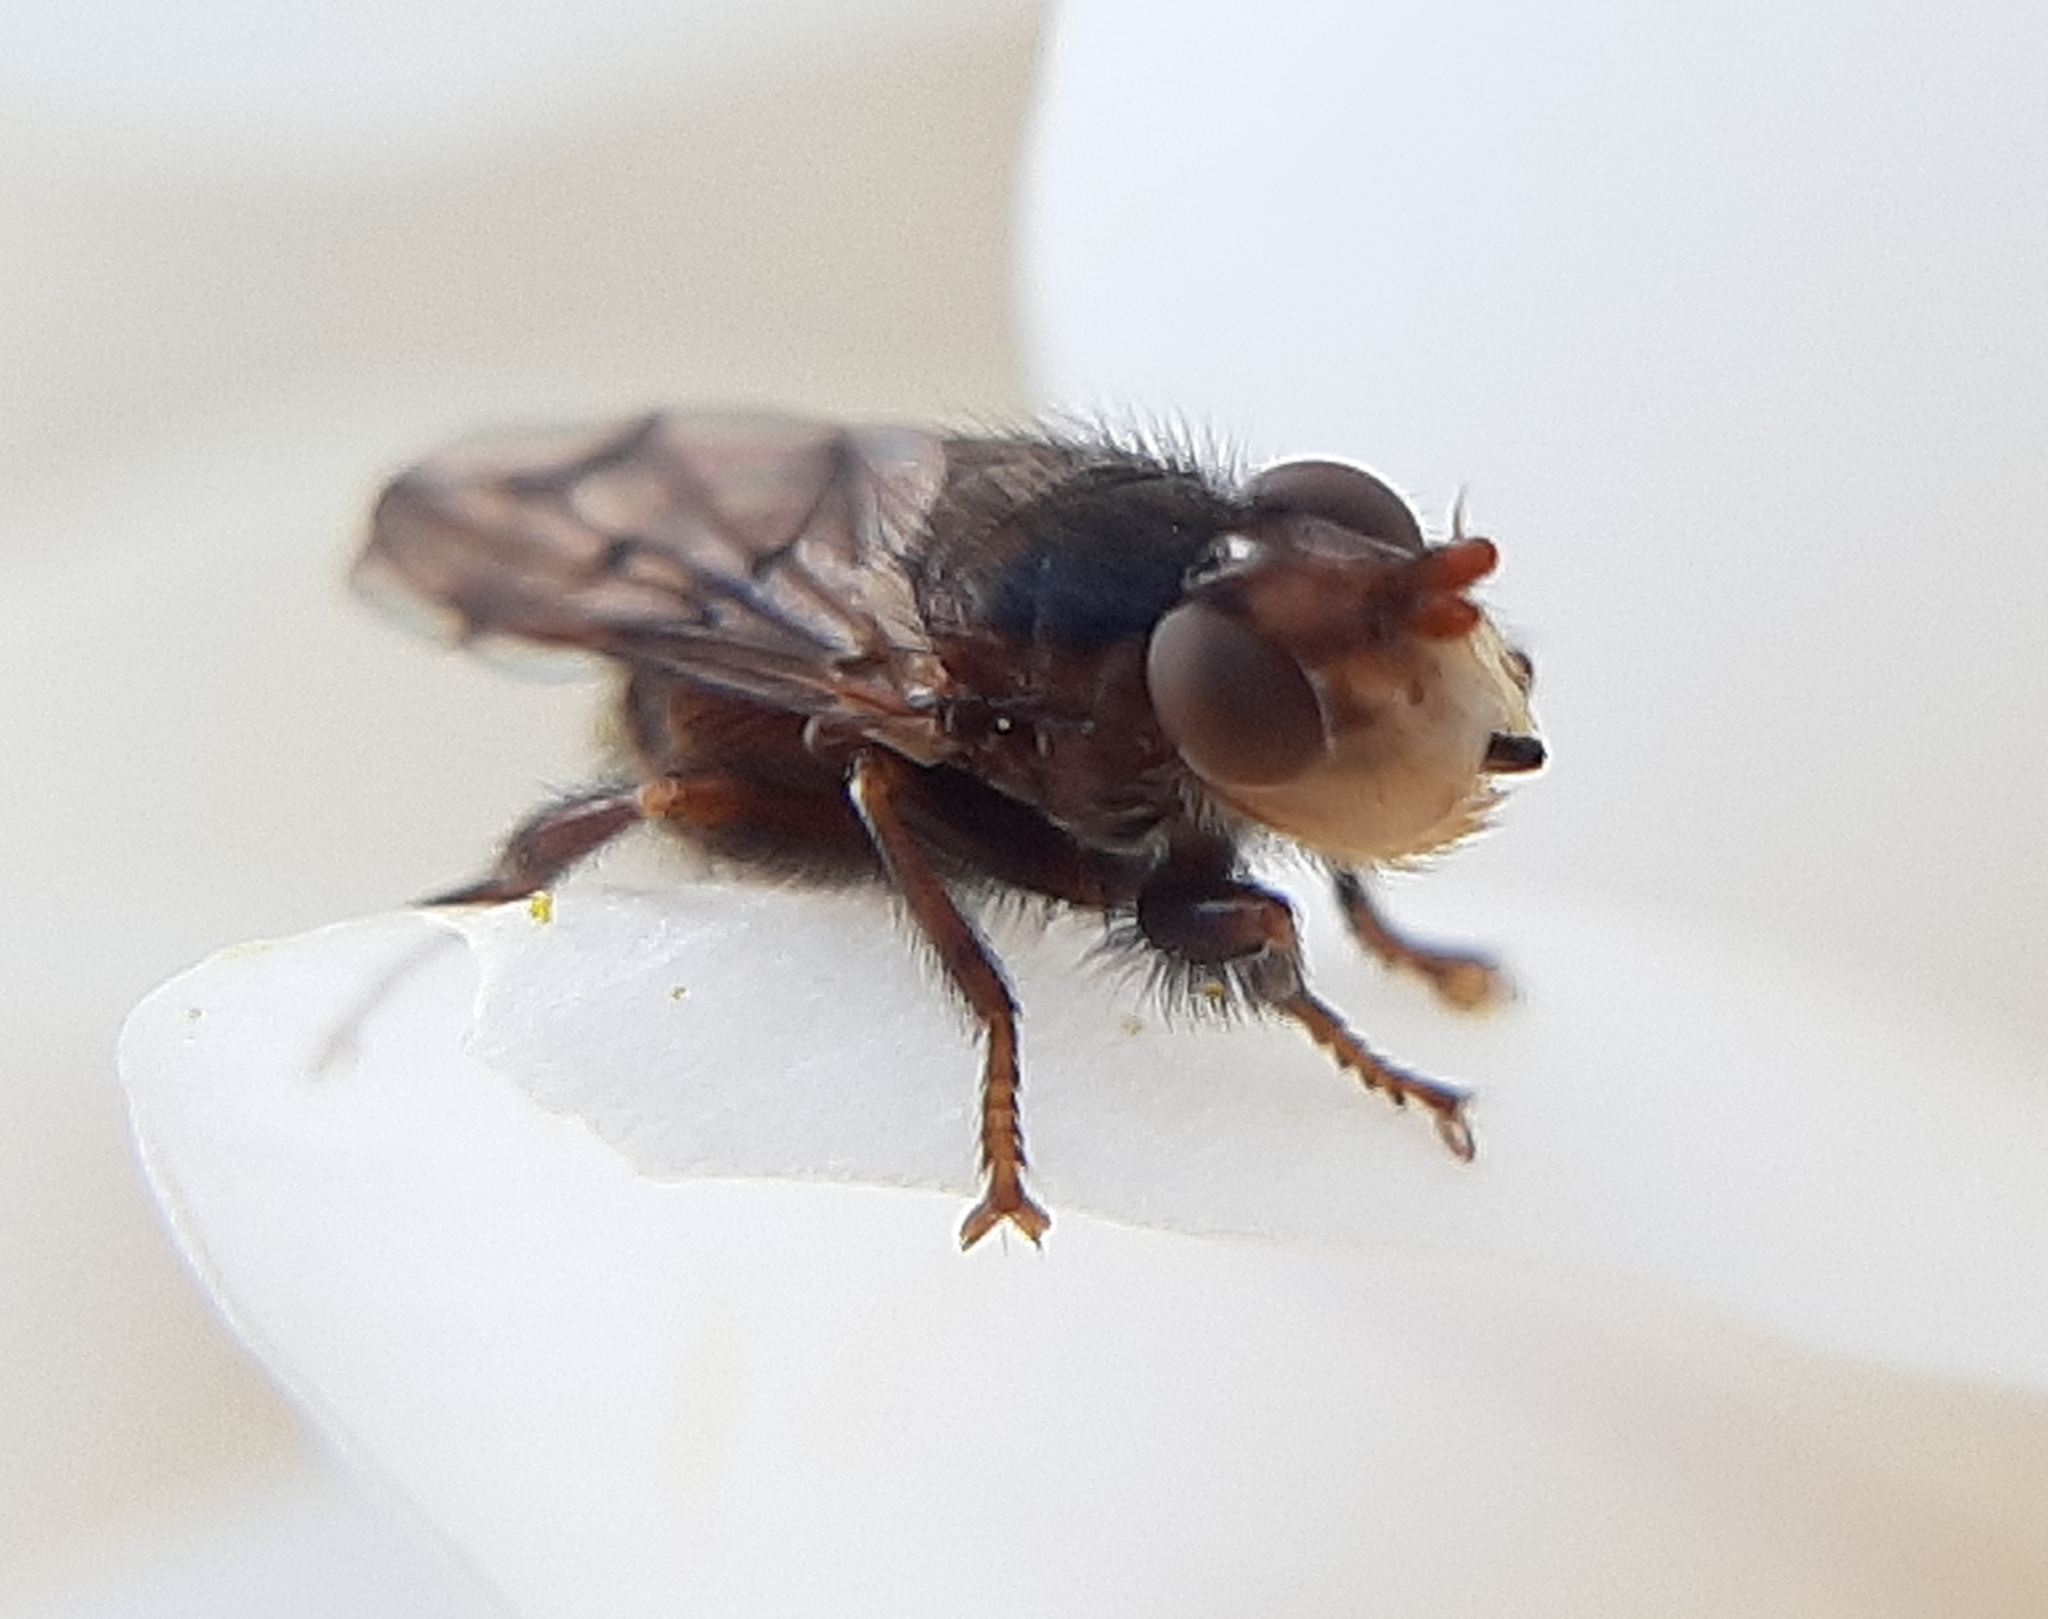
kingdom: Animalia
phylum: Arthropoda
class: Insecta
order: Diptera
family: Conopidae
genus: Myopa
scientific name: Myopa vicaria
